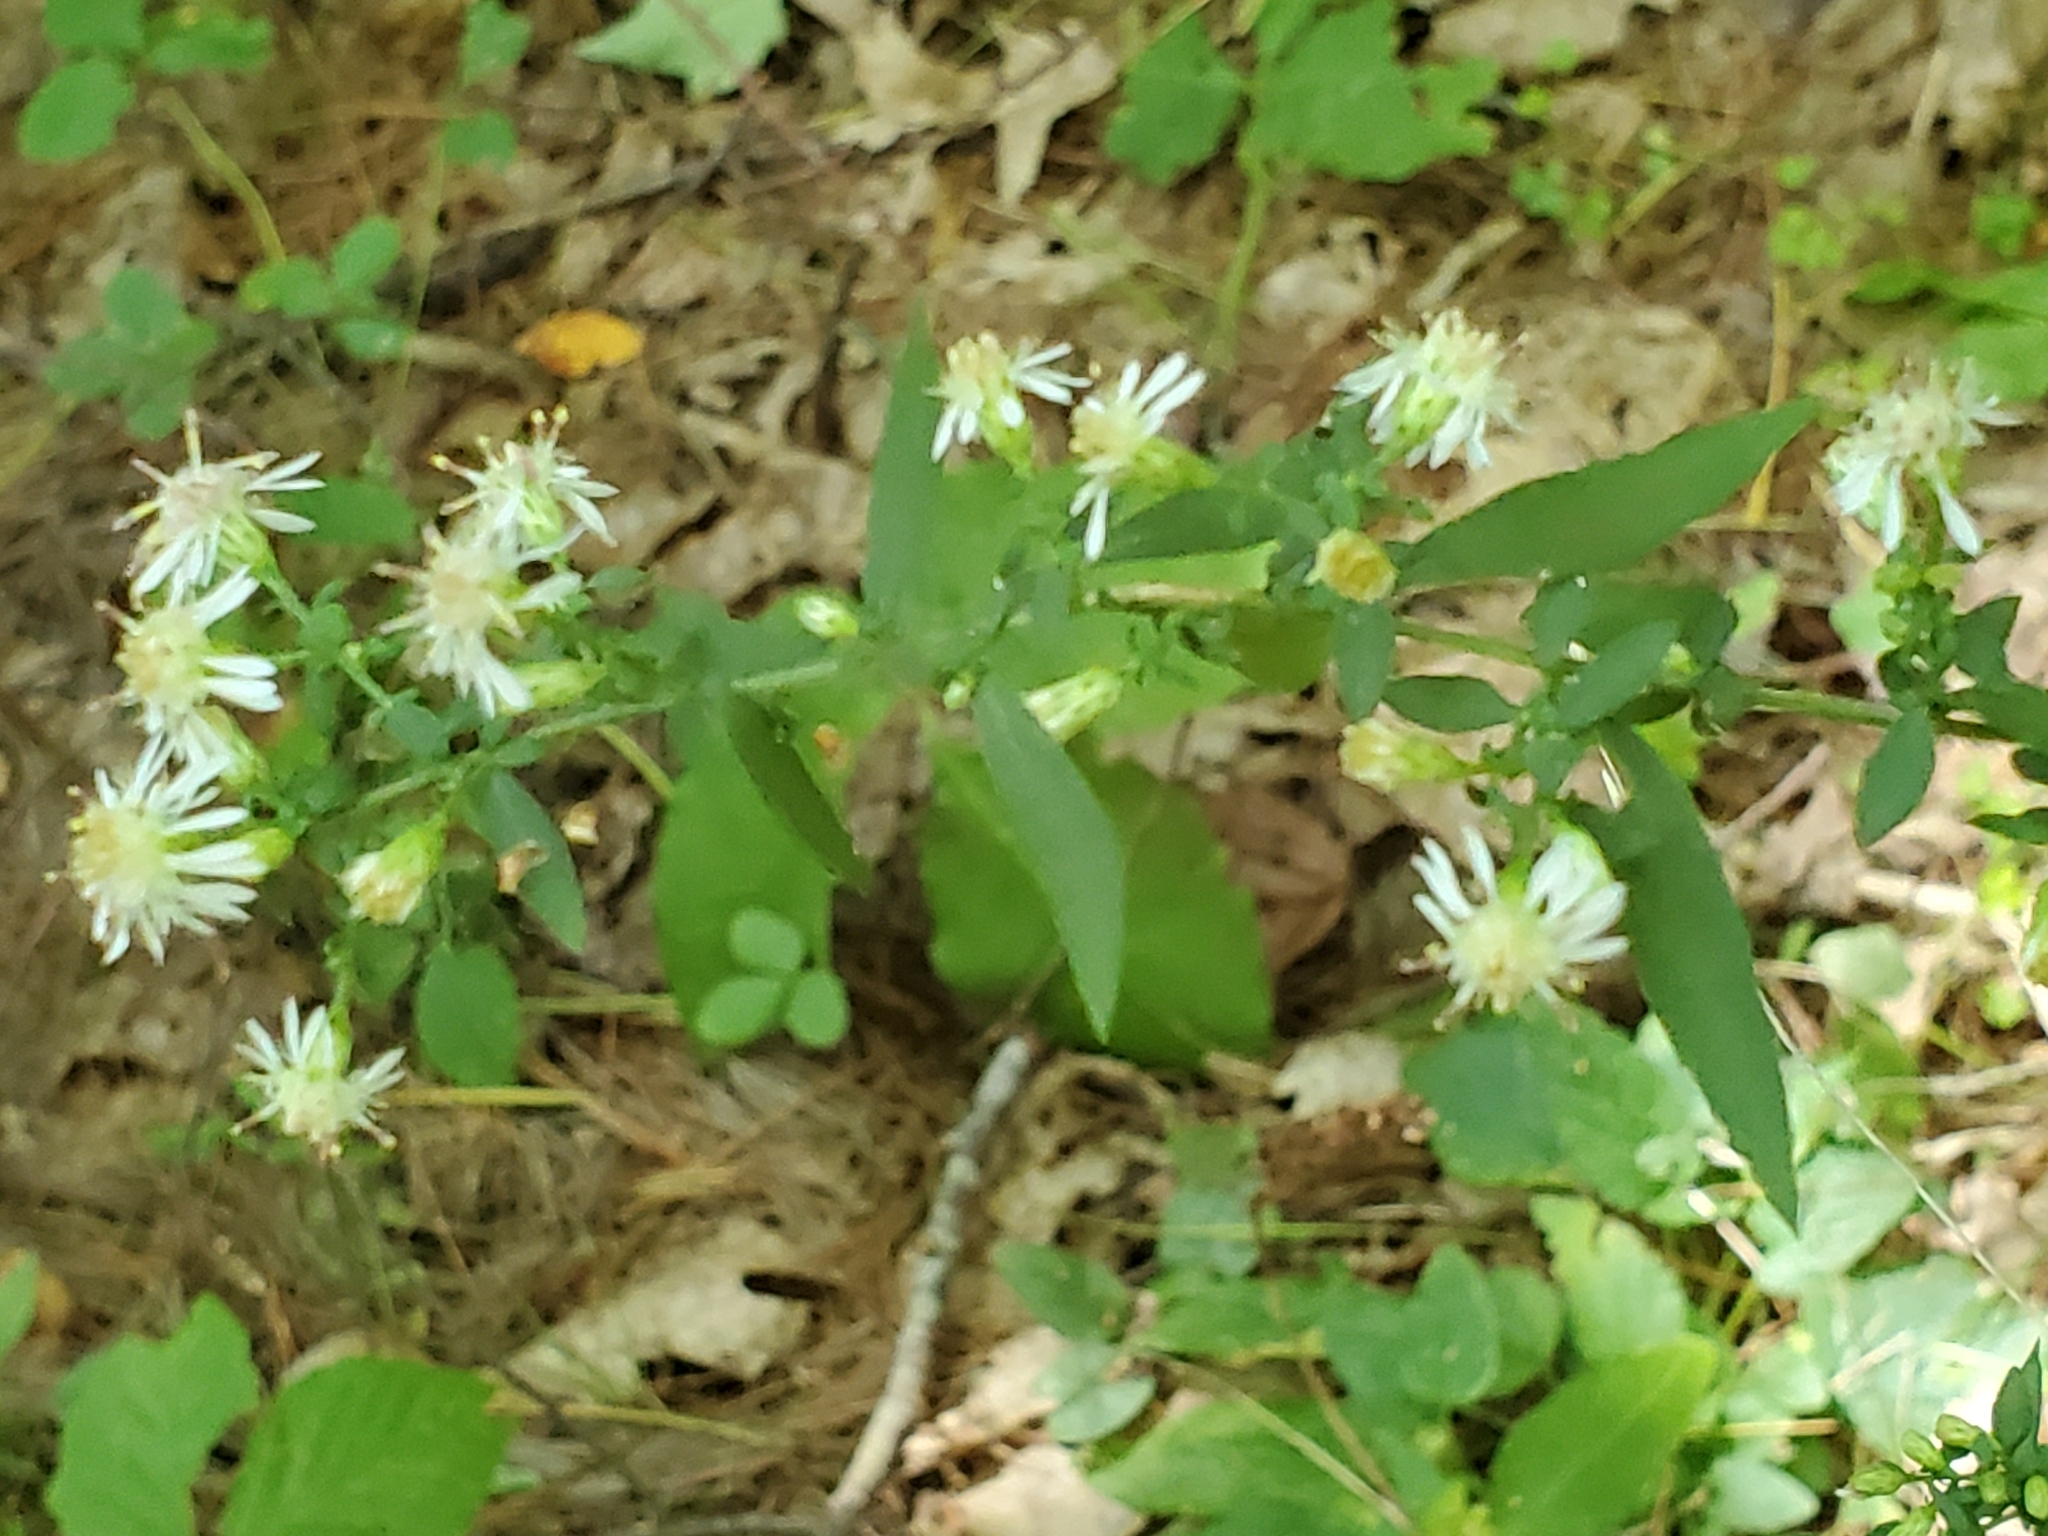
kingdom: Plantae
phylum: Tracheophyta
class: Magnoliopsida
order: Asterales
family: Asteraceae
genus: Symphyotrichum
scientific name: Symphyotrichum lateriflorum
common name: Calico aster
